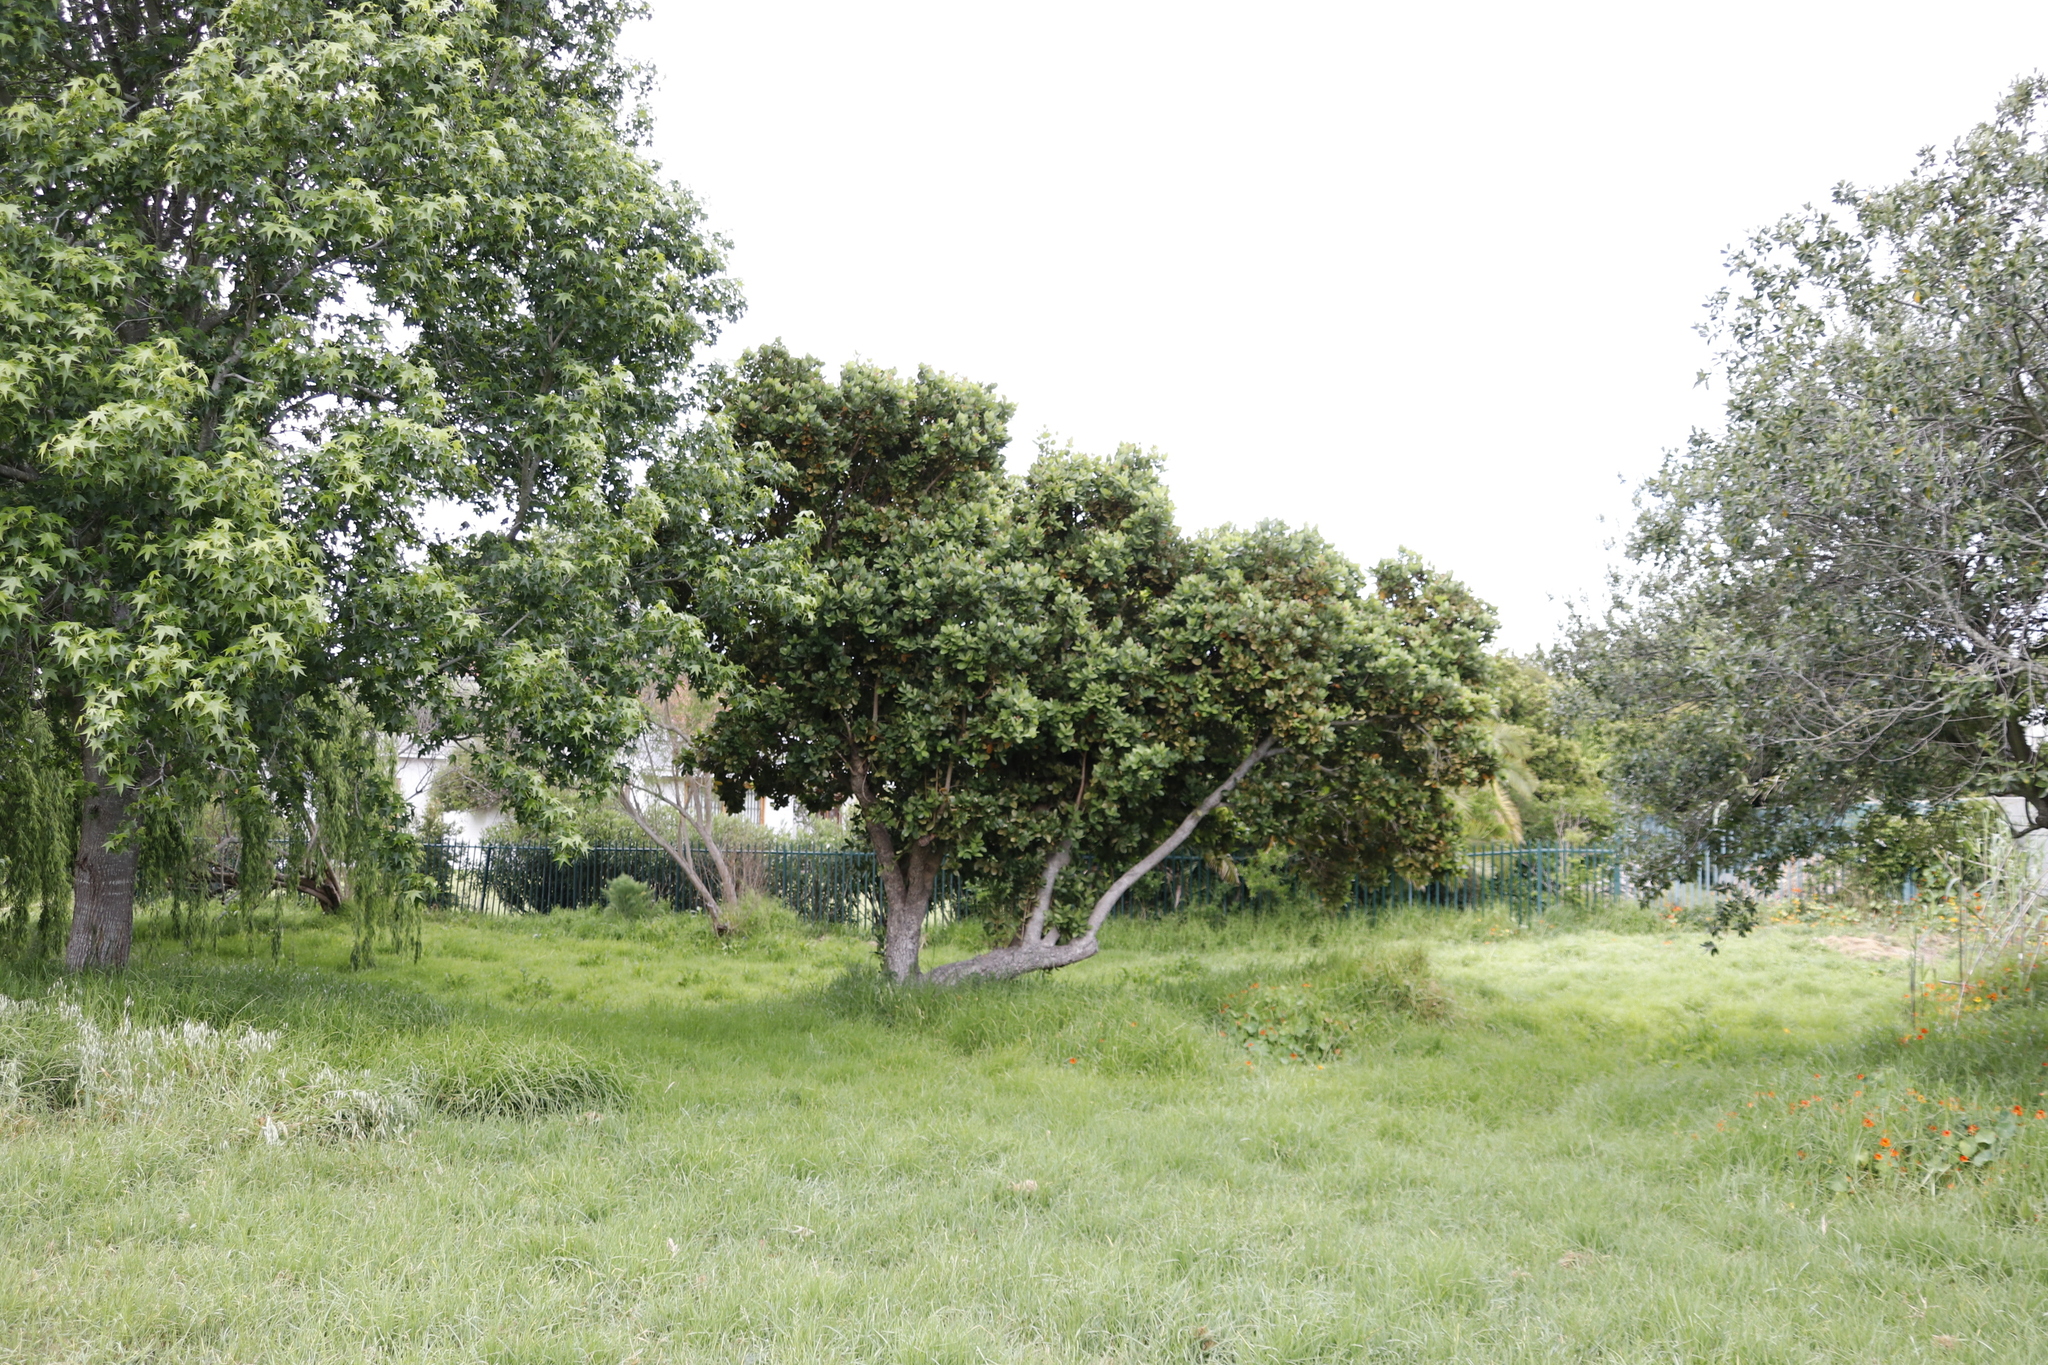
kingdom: Plantae
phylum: Tracheophyta
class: Magnoliopsida
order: Myrtales
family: Myrtaceae
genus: Syzygium
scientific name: Syzygium cordatum
